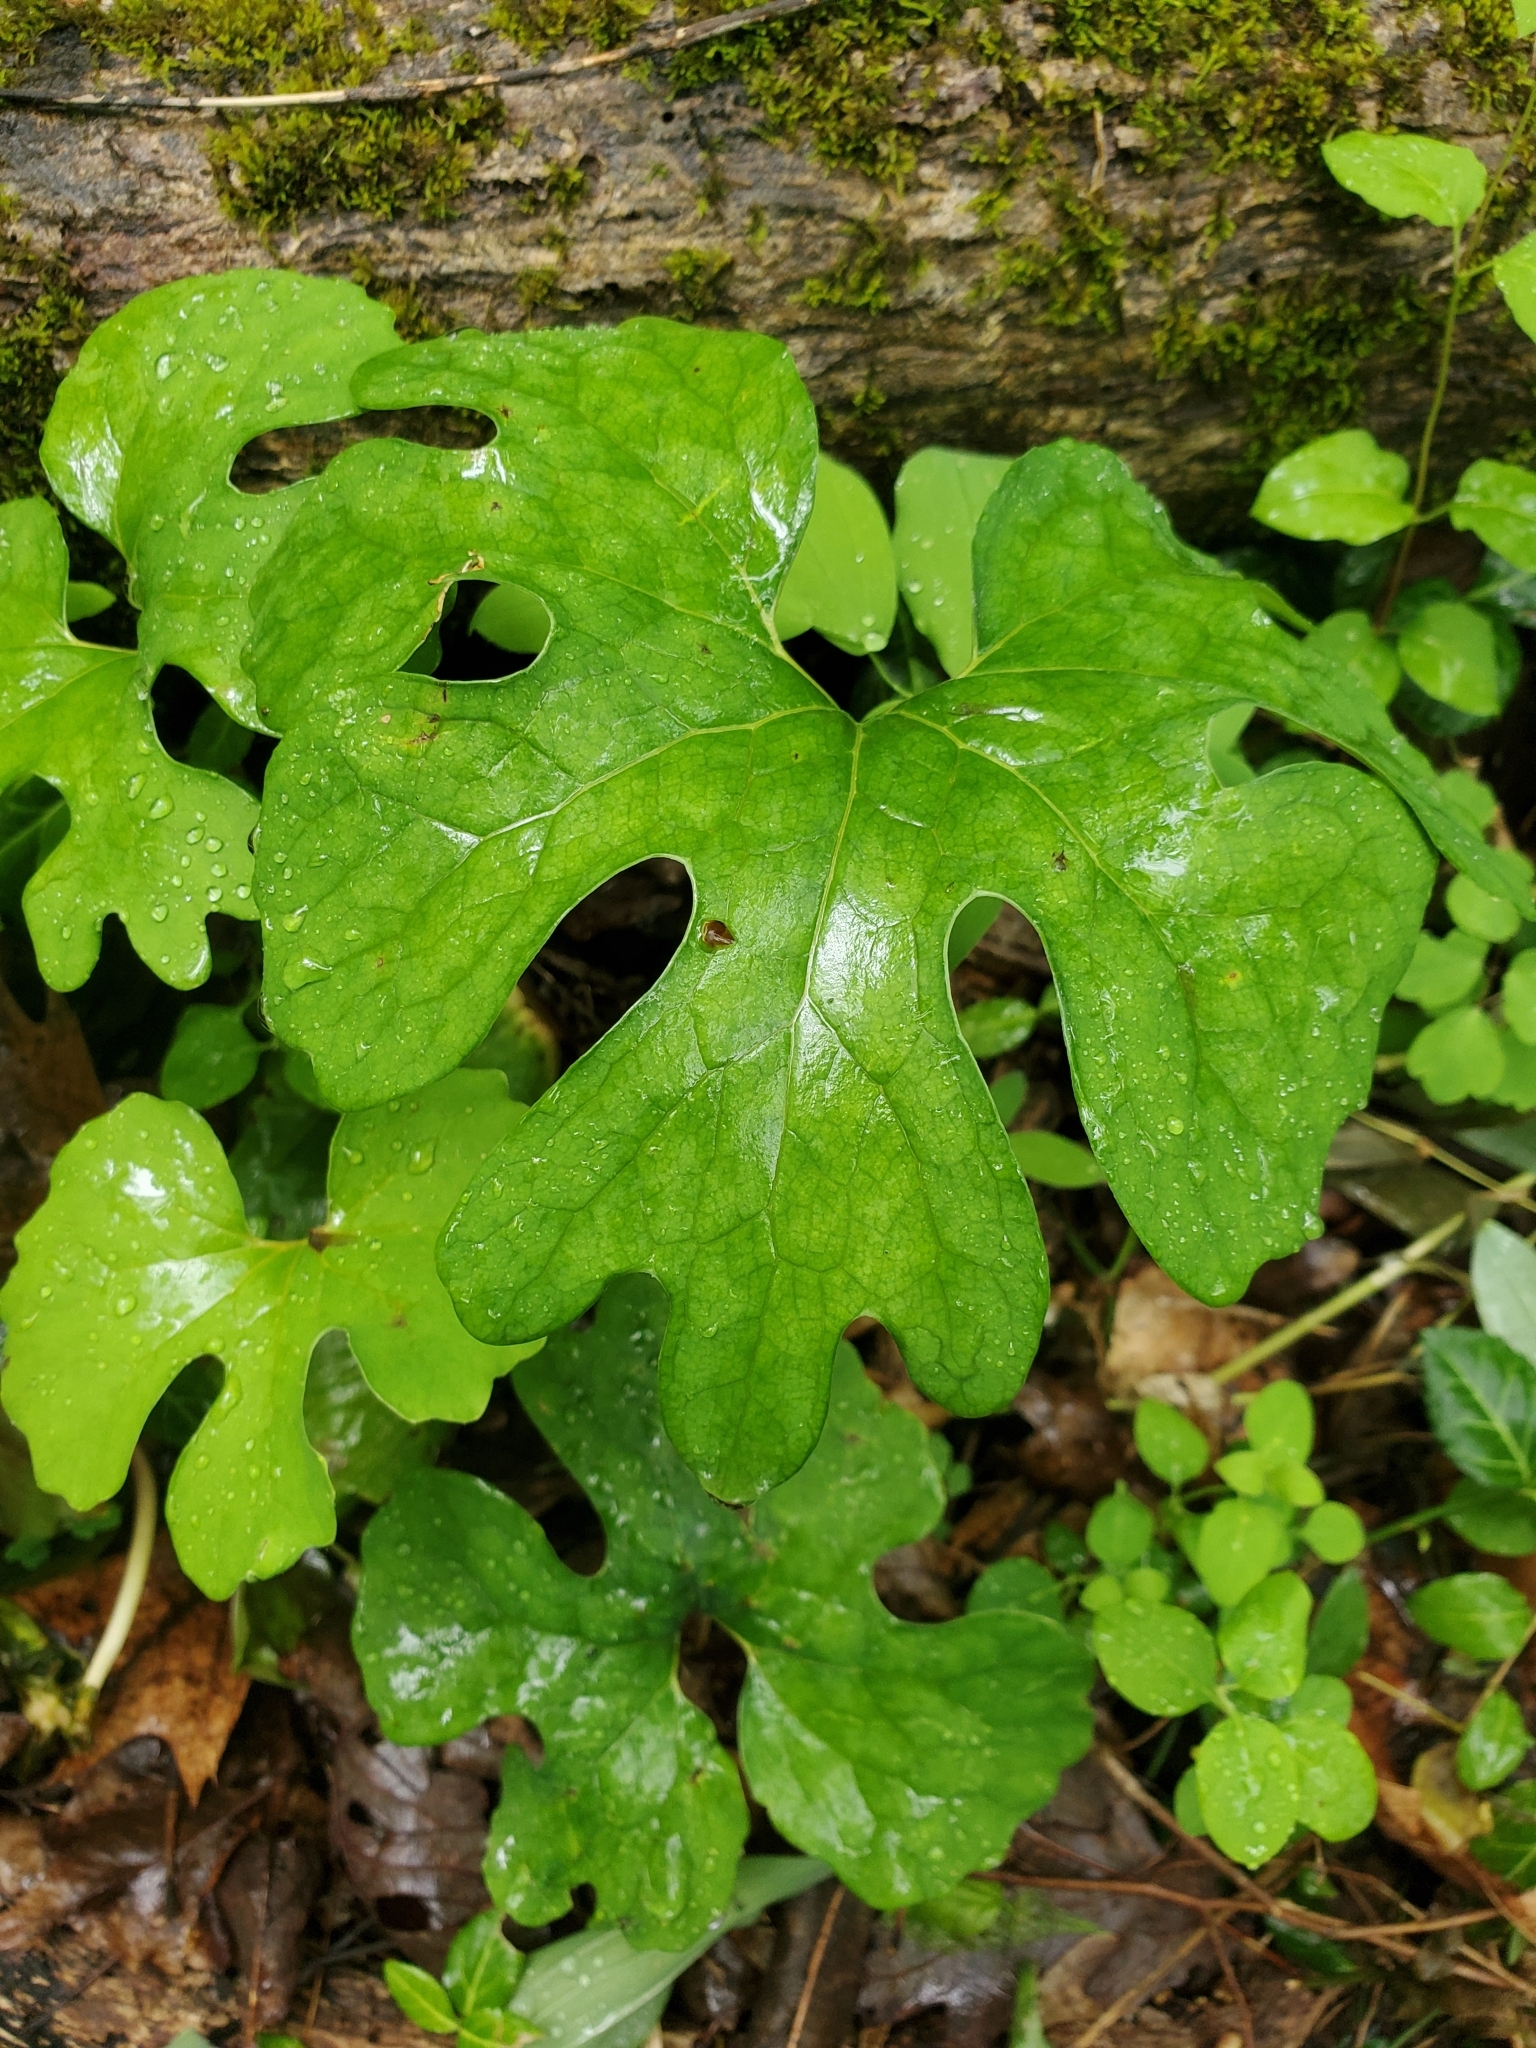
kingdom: Plantae
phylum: Tracheophyta
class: Magnoliopsida
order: Ranunculales
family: Papaveraceae
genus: Sanguinaria
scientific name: Sanguinaria canadensis
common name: Bloodroot
